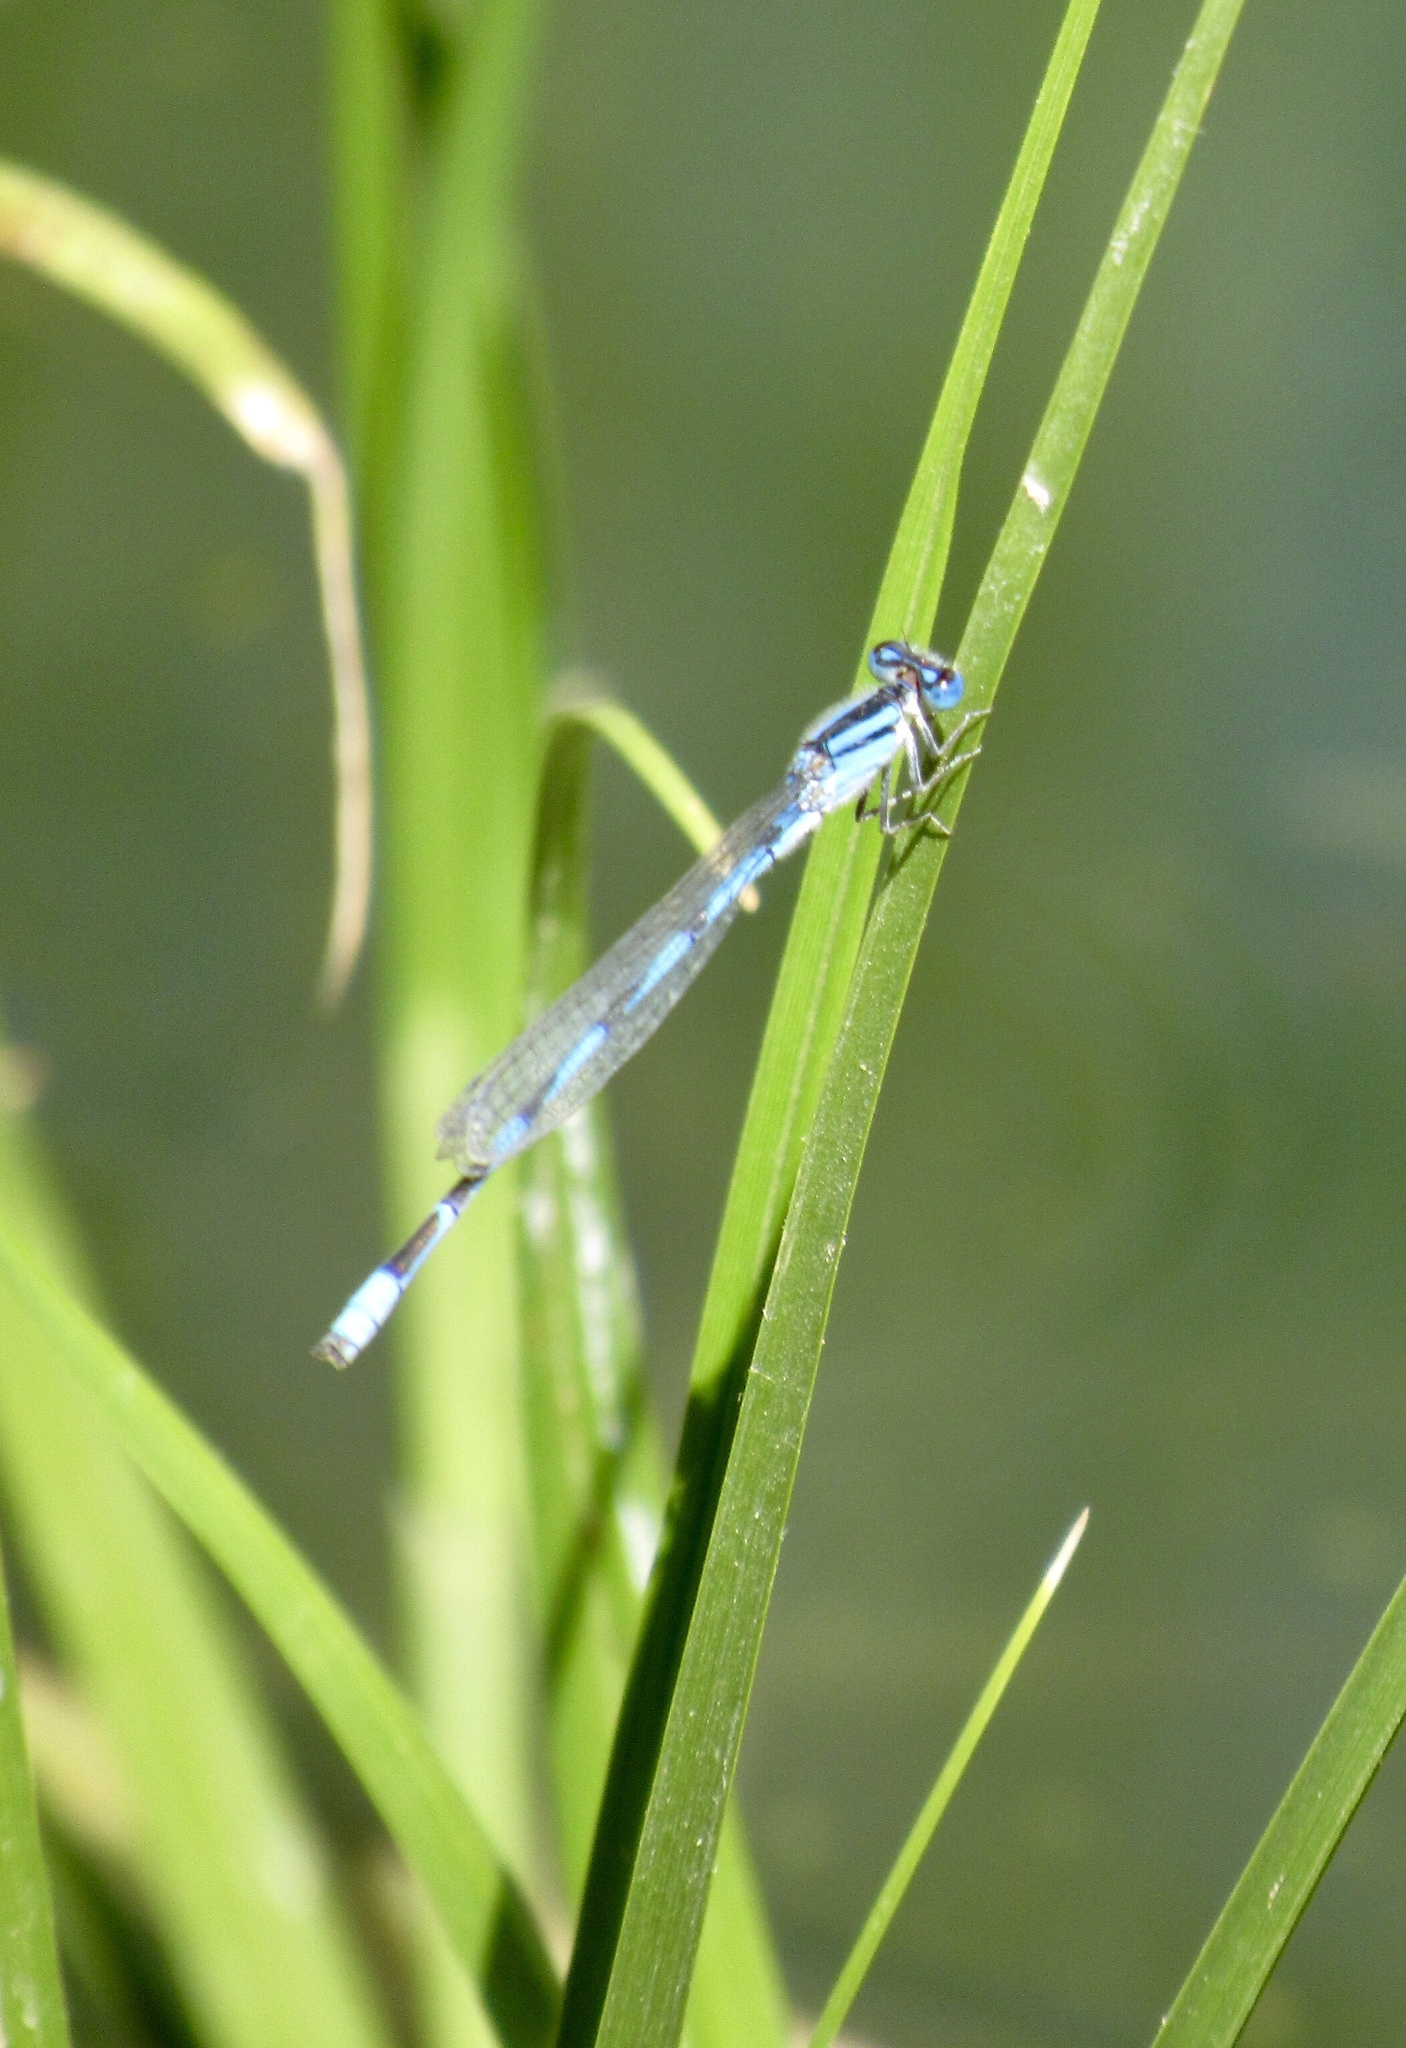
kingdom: Animalia
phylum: Arthropoda
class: Insecta
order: Odonata
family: Coenagrionidae
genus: Enallagma
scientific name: Enallagma civile
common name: Damselfly
